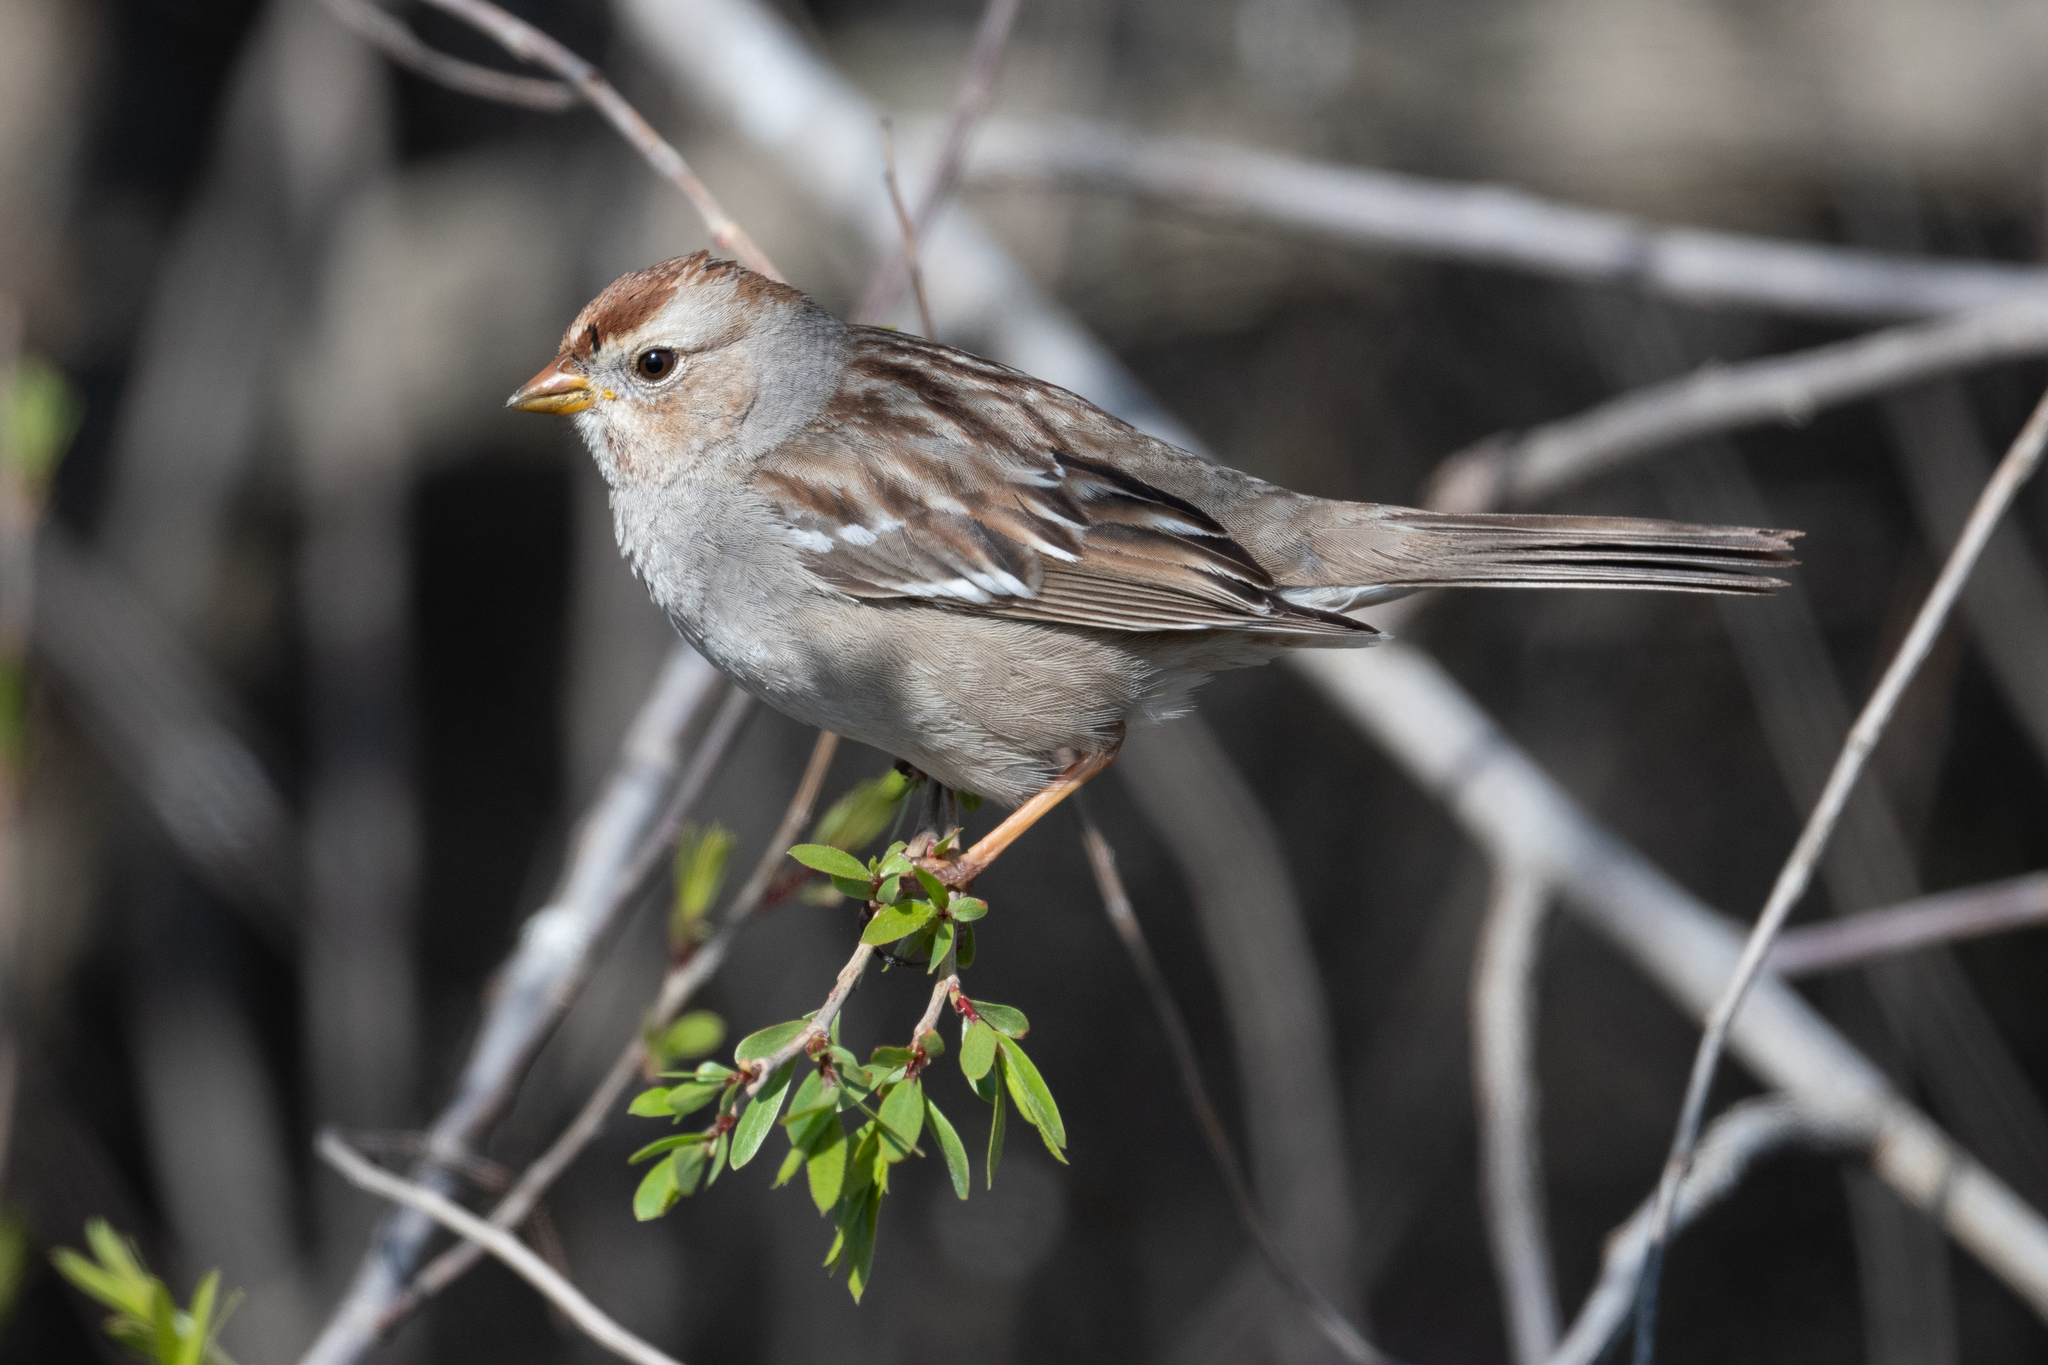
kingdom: Animalia
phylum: Chordata
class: Aves
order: Passeriformes
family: Passerellidae
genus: Zonotrichia
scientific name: Zonotrichia leucophrys
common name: White-crowned sparrow
